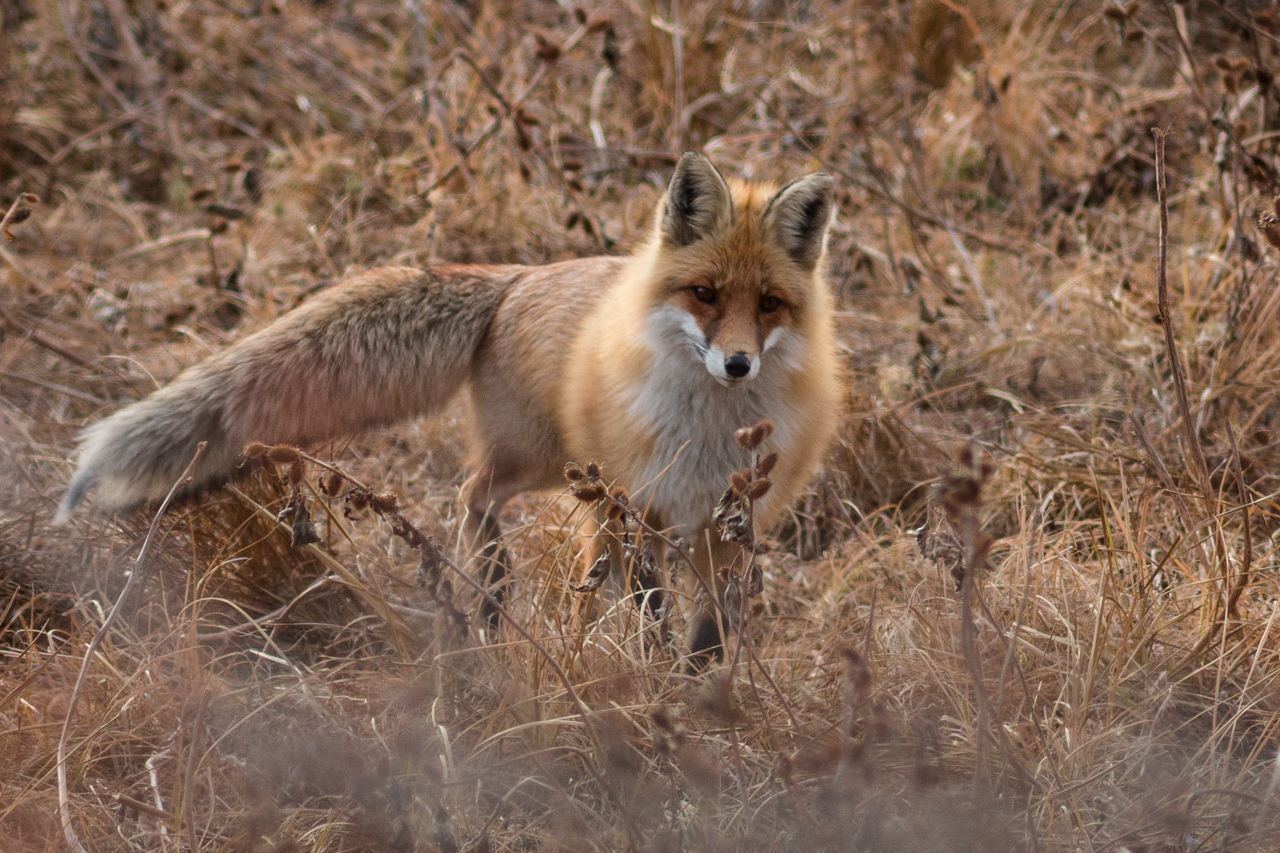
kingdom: Animalia
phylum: Chordata
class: Mammalia
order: Carnivora
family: Canidae
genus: Vulpes
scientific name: Vulpes vulpes
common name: Red fox
